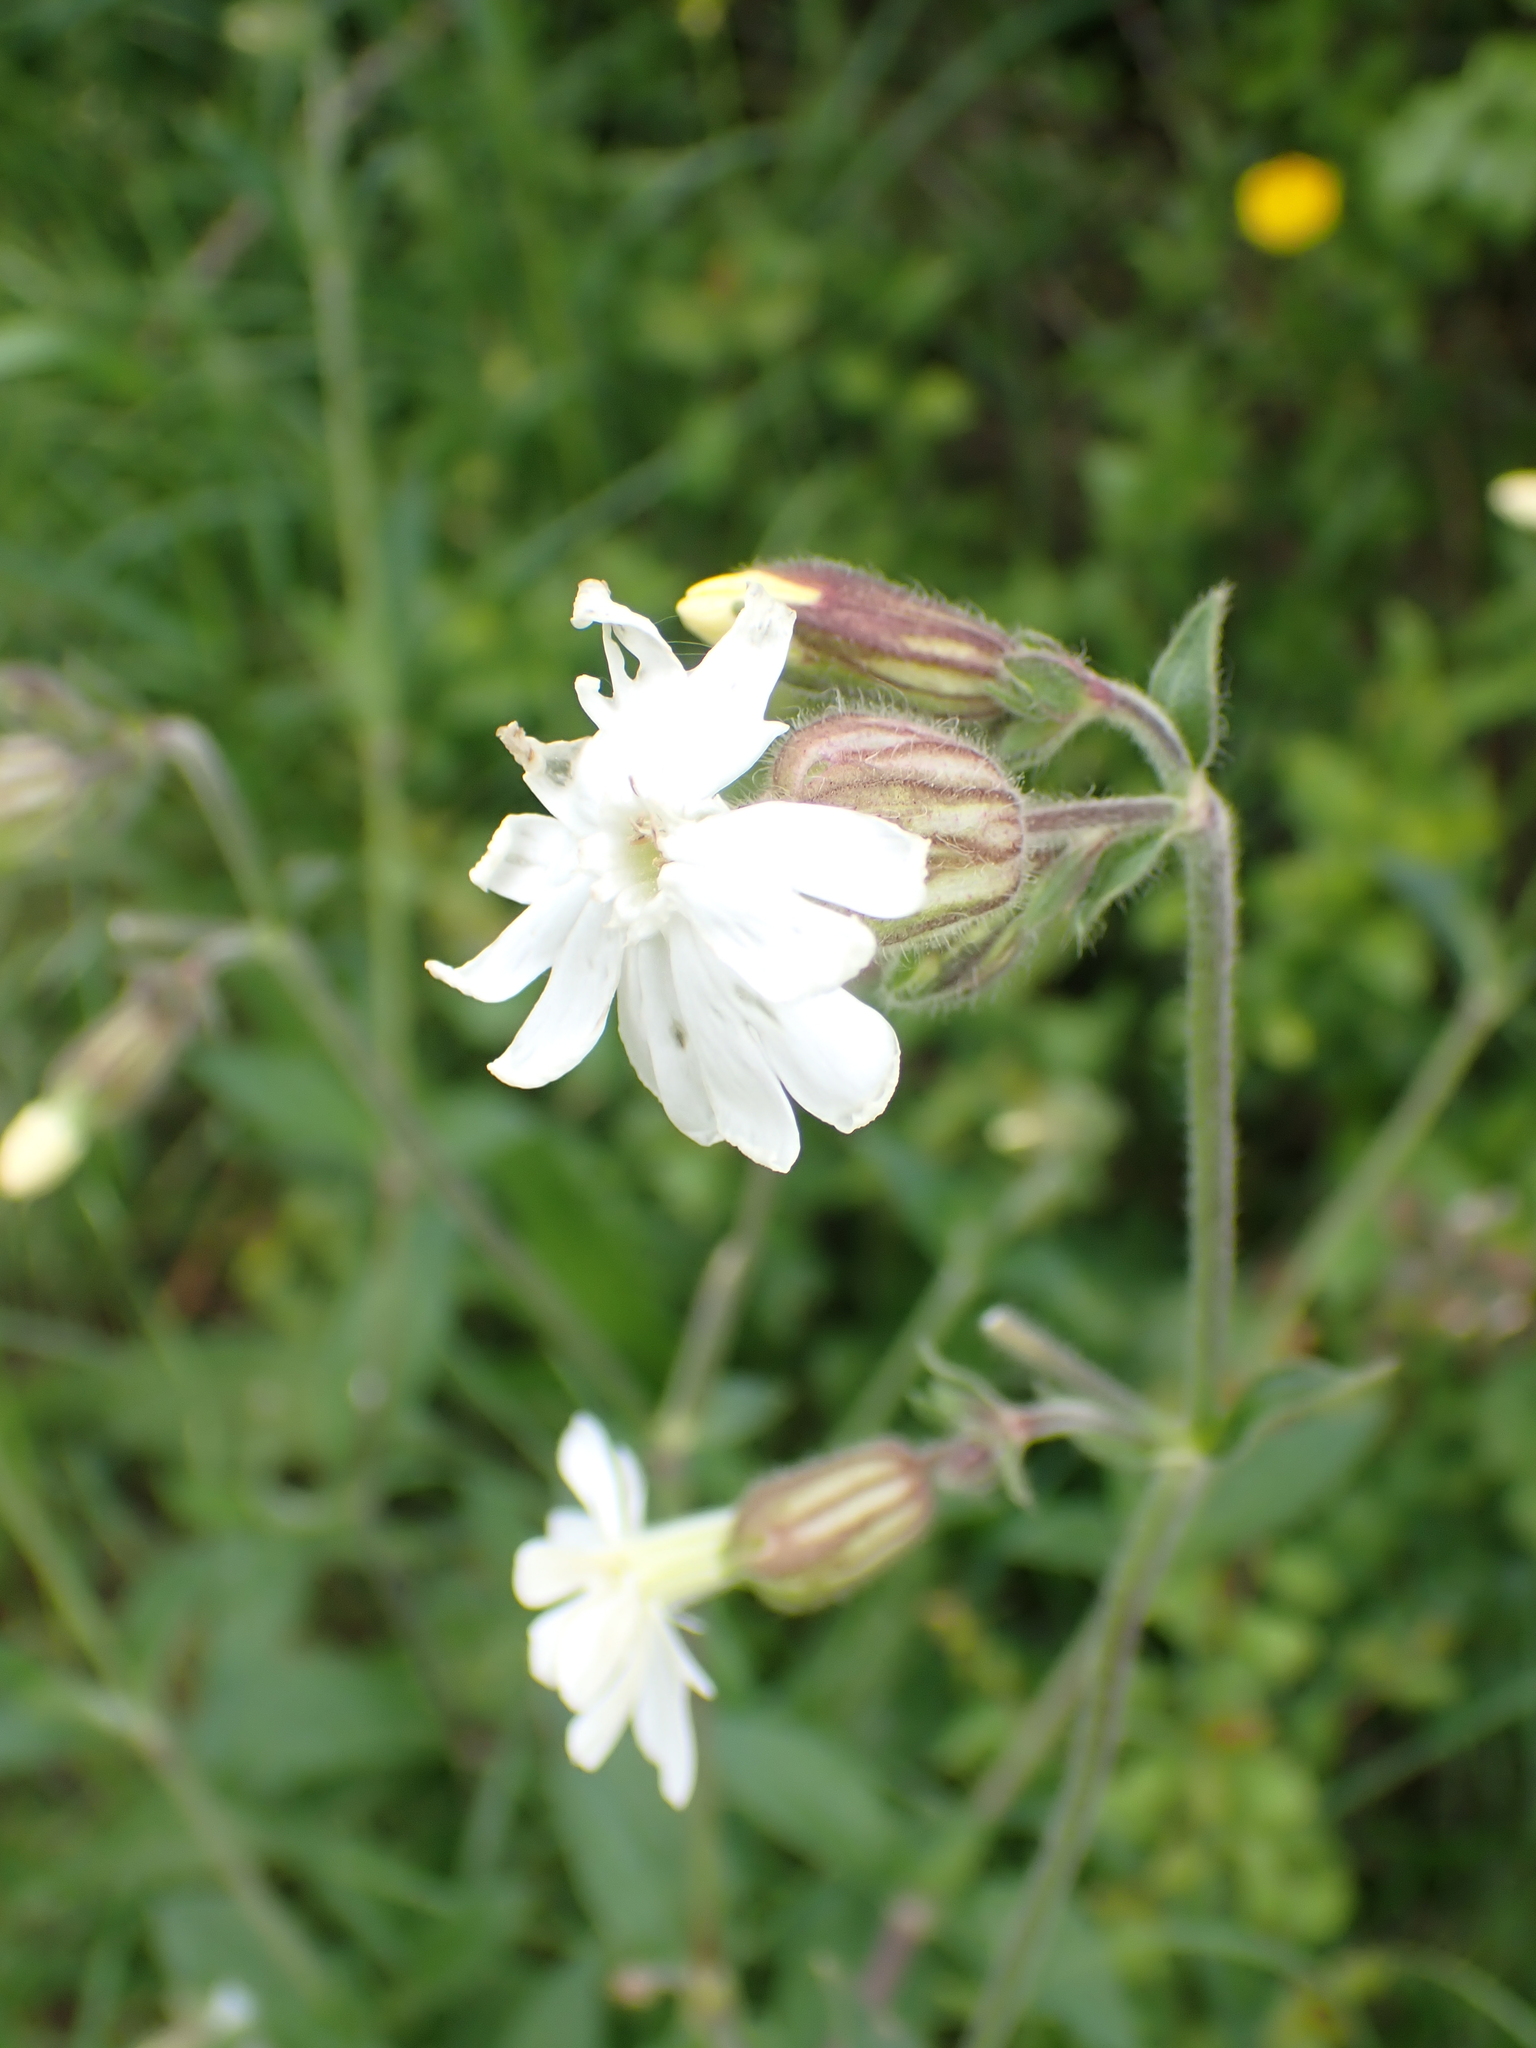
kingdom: Plantae
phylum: Tracheophyta
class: Magnoliopsida
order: Caryophyllales
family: Caryophyllaceae
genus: Silene
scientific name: Silene latifolia
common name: White campion
